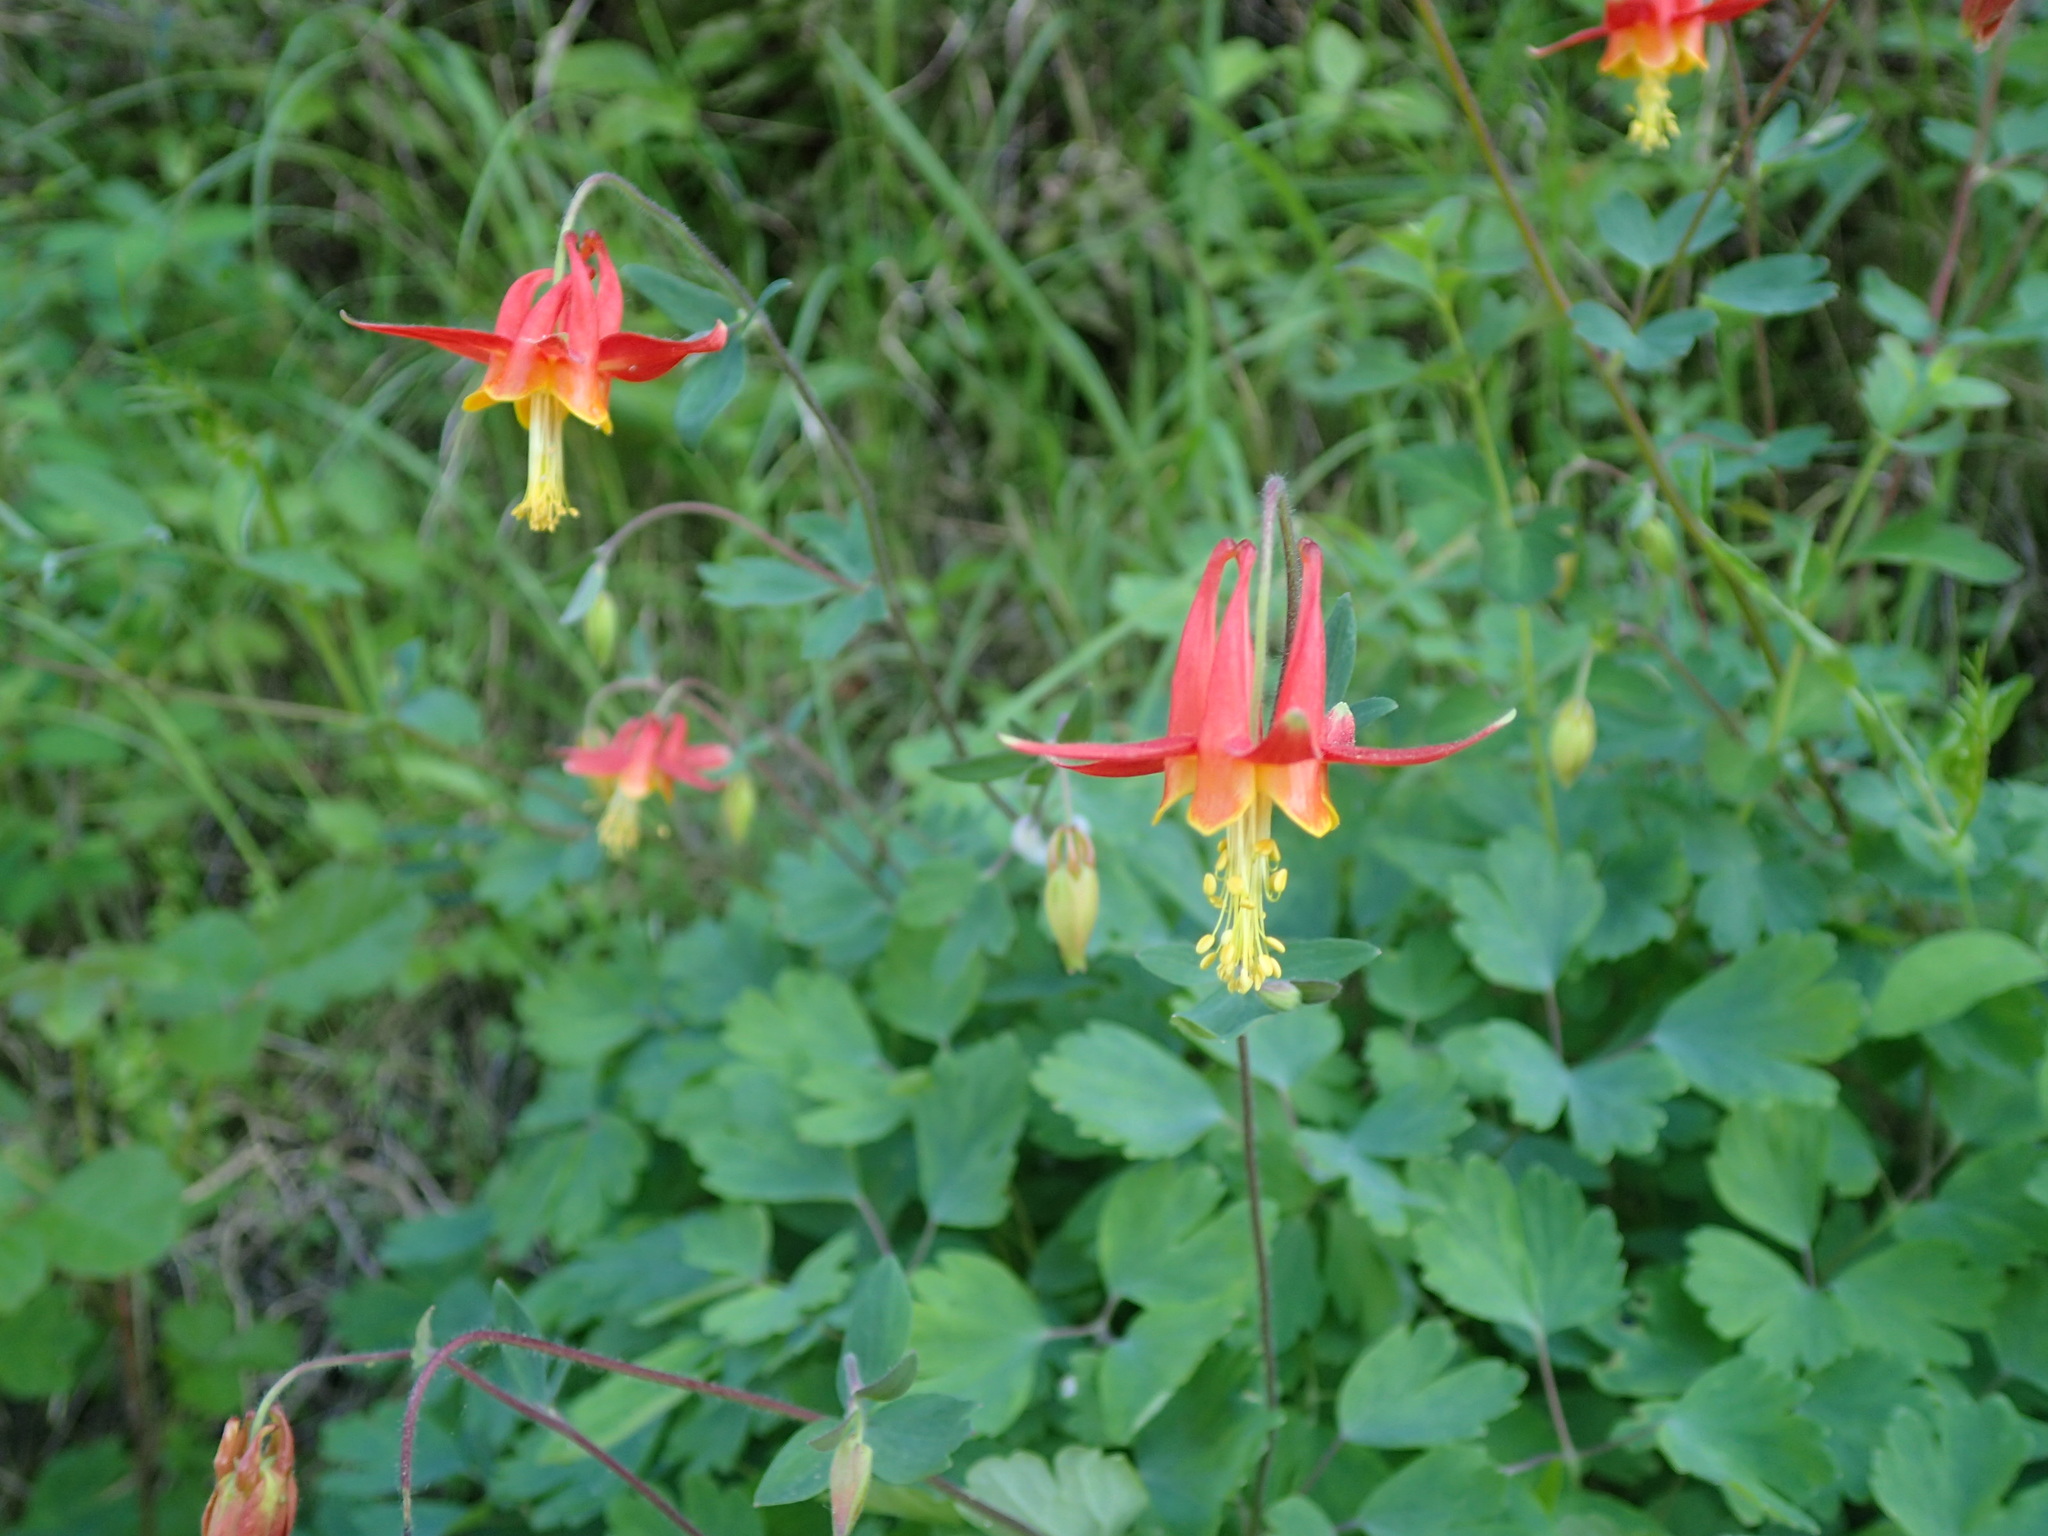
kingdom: Plantae
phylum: Tracheophyta
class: Magnoliopsida
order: Ranunculales
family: Ranunculaceae
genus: Aquilegia
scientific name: Aquilegia formosa
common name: Sitka columbine
